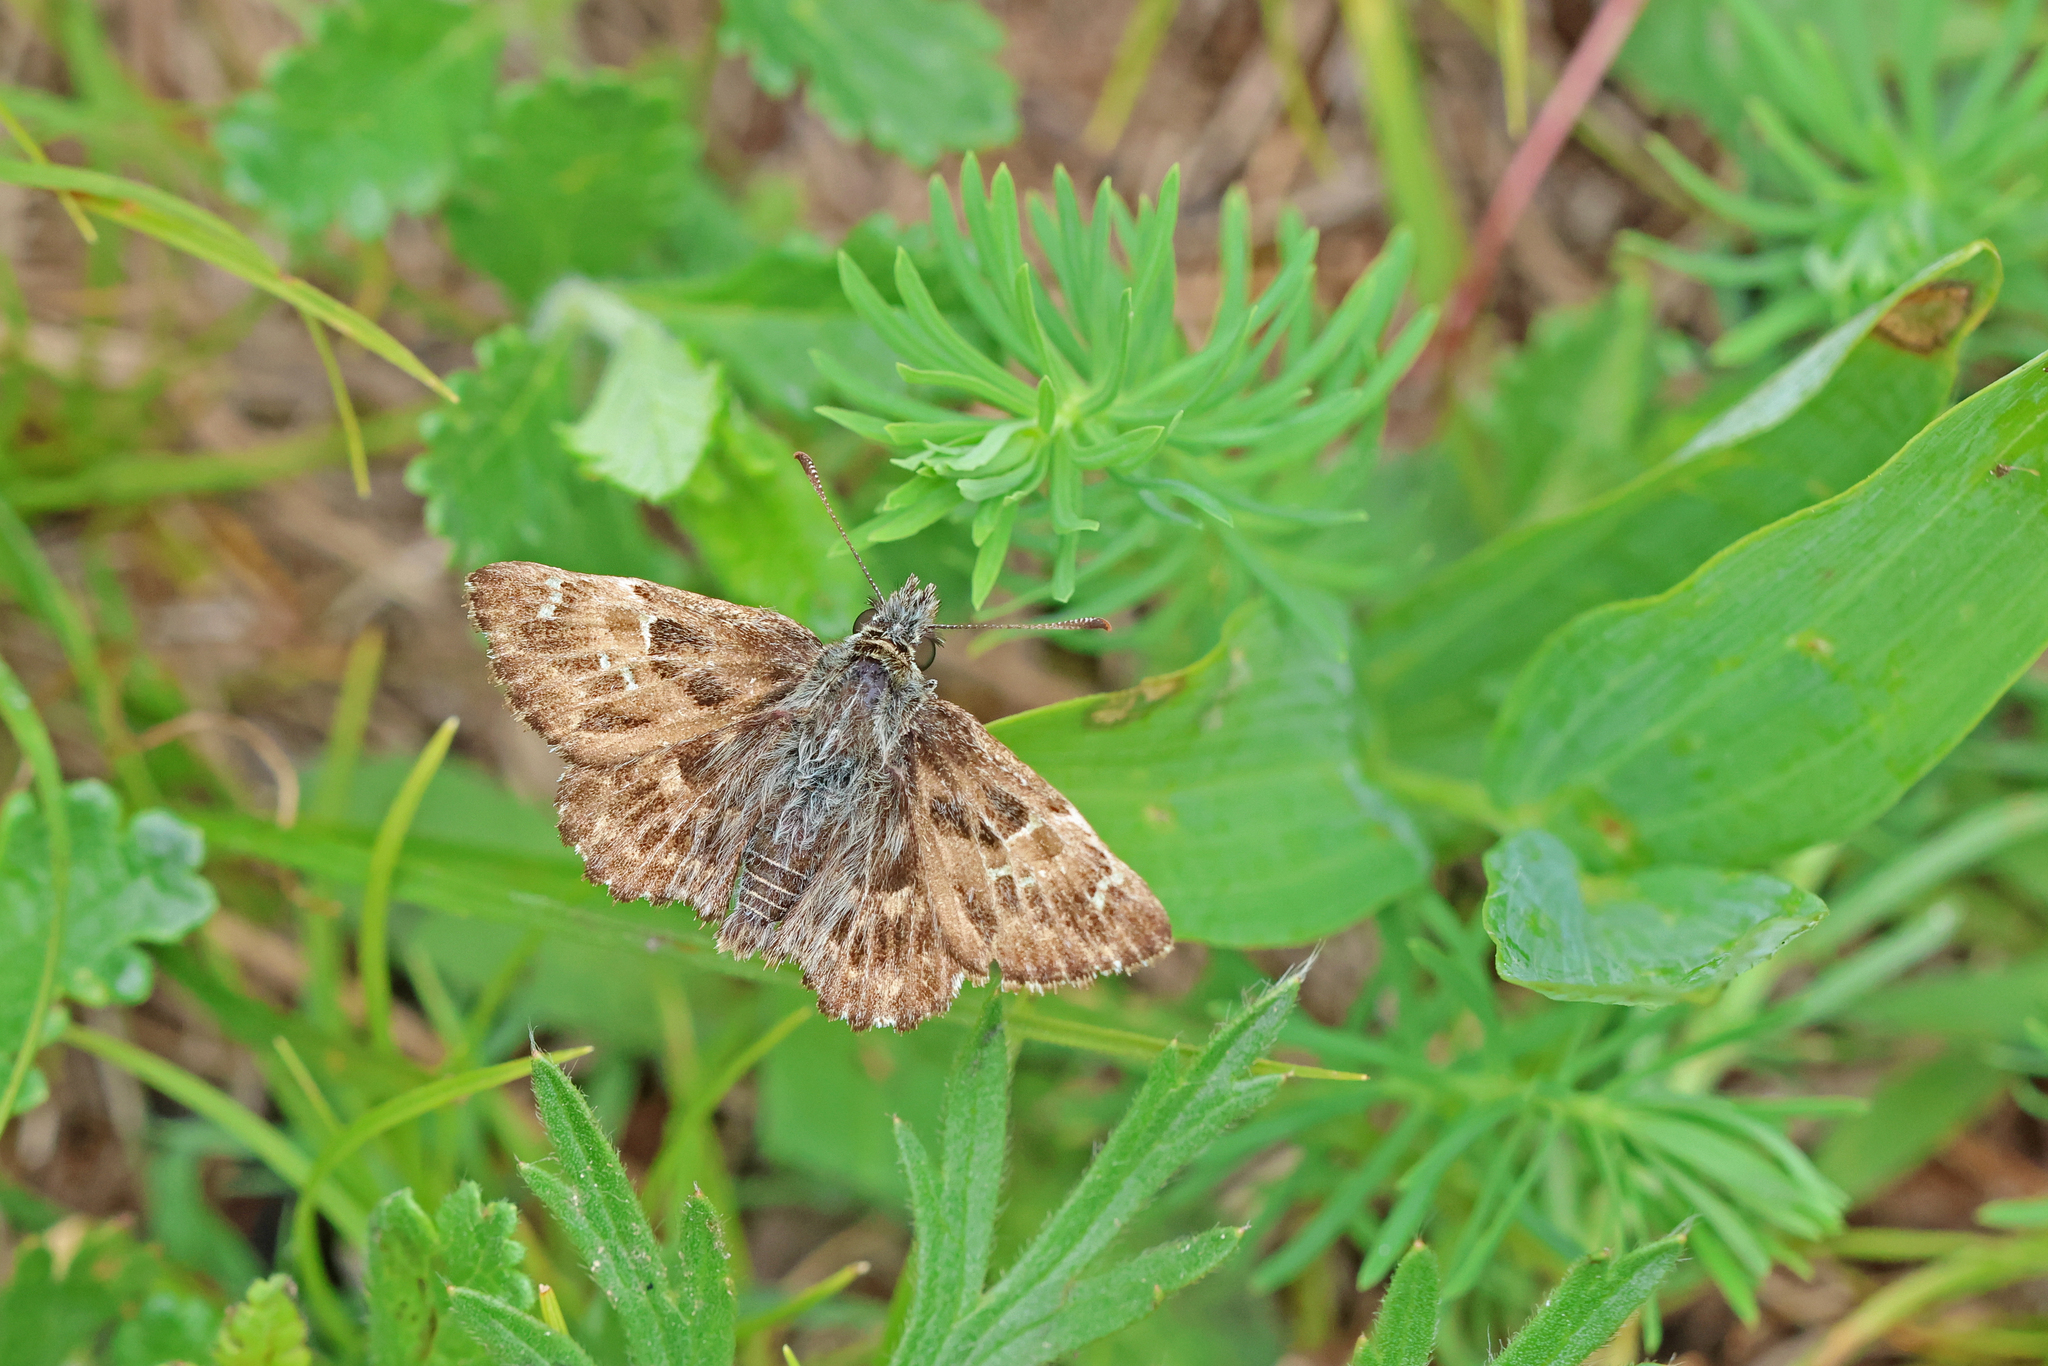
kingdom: Animalia
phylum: Arthropoda
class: Insecta
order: Lepidoptera
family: Hesperiidae
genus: Carcharodus
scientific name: Carcharodus alceae
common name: Mallow skipper
